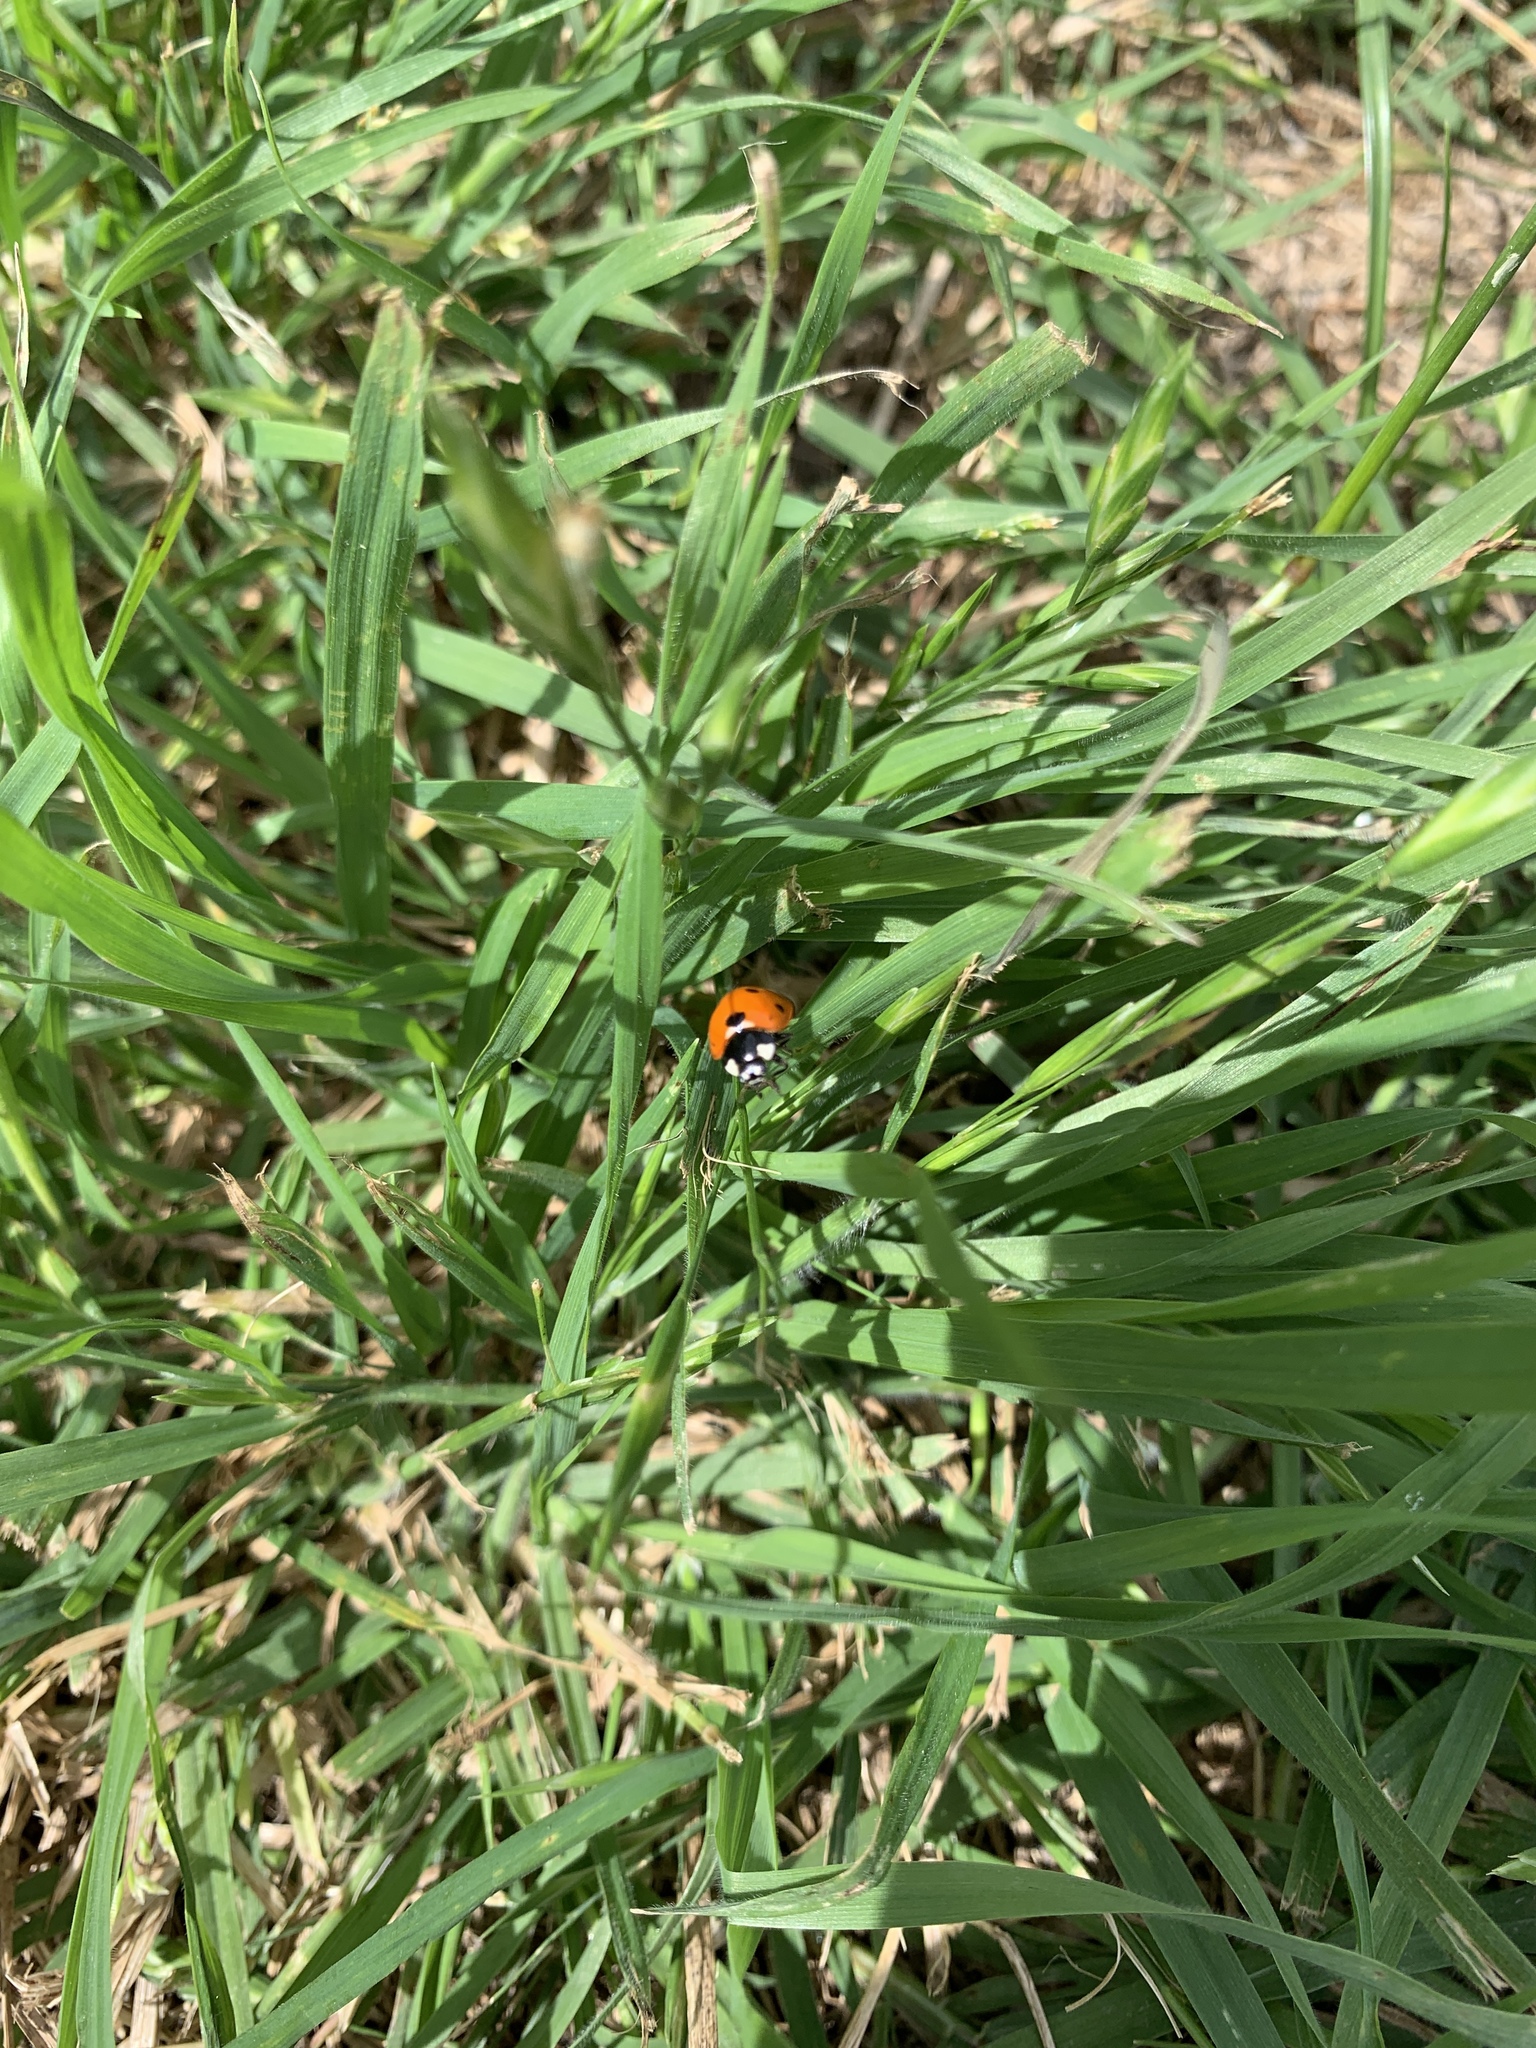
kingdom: Animalia
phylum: Arthropoda
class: Insecta
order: Coleoptera
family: Coccinellidae
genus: Coccinella
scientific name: Coccinella septempunctata
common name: Sevenspotted lady beetle
